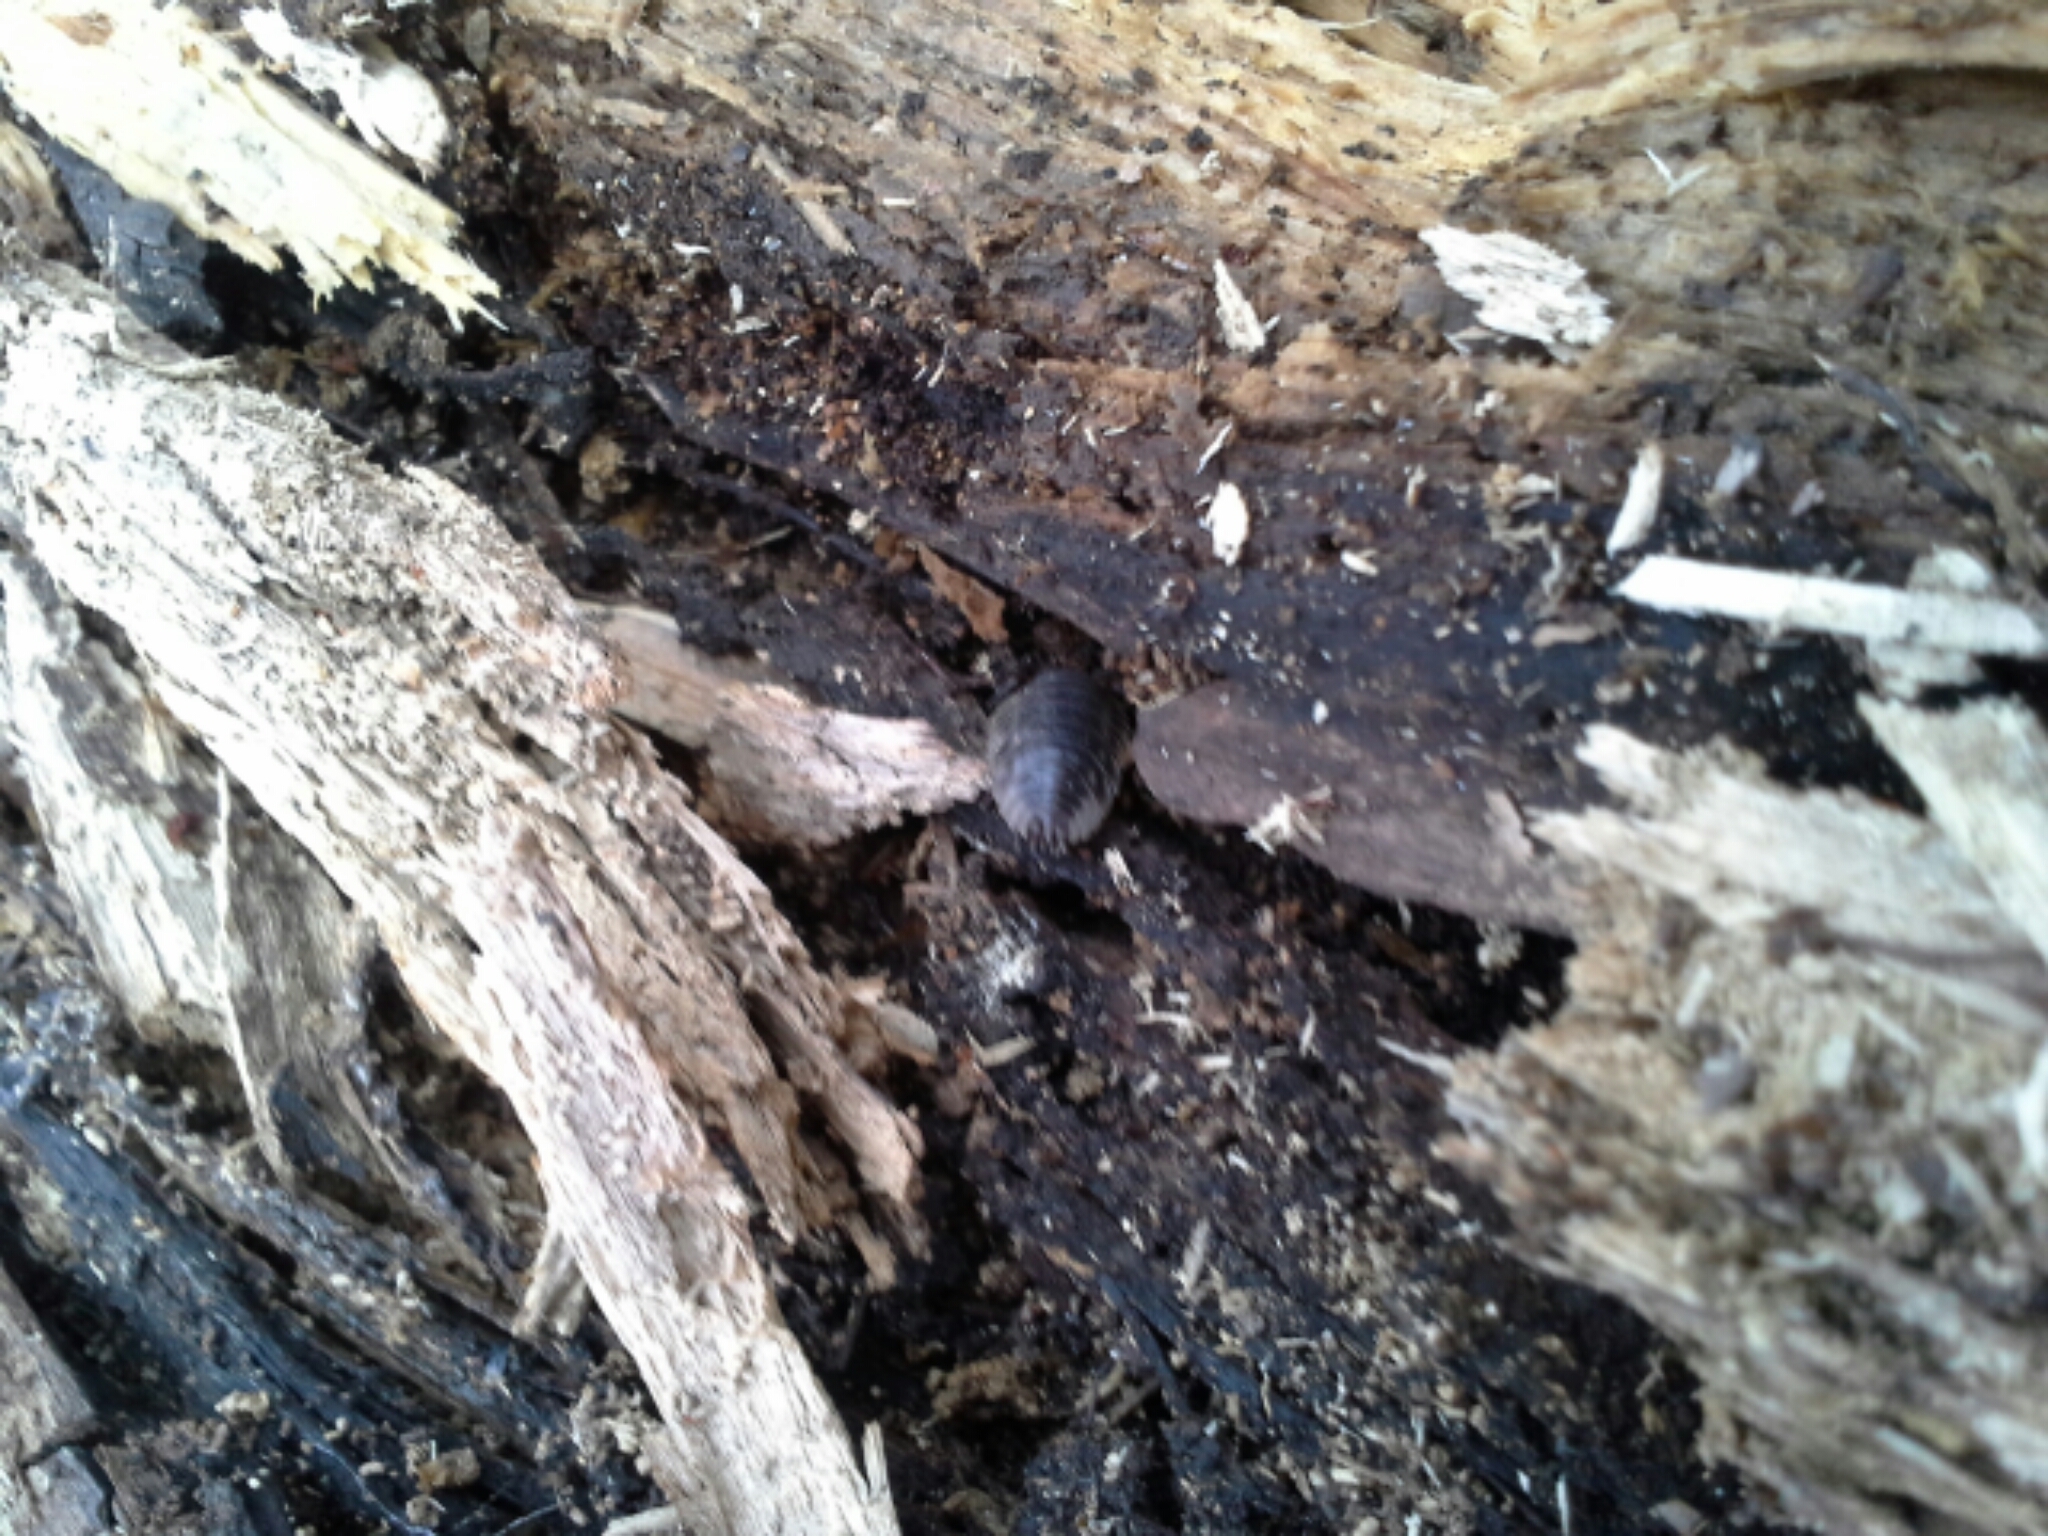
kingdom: Animalia
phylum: Arthropoda
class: Malacostraca
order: Isopoda
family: Oniscidae
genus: Oniscus
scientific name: Oniscus asellus
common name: Common shiny woodlouse
